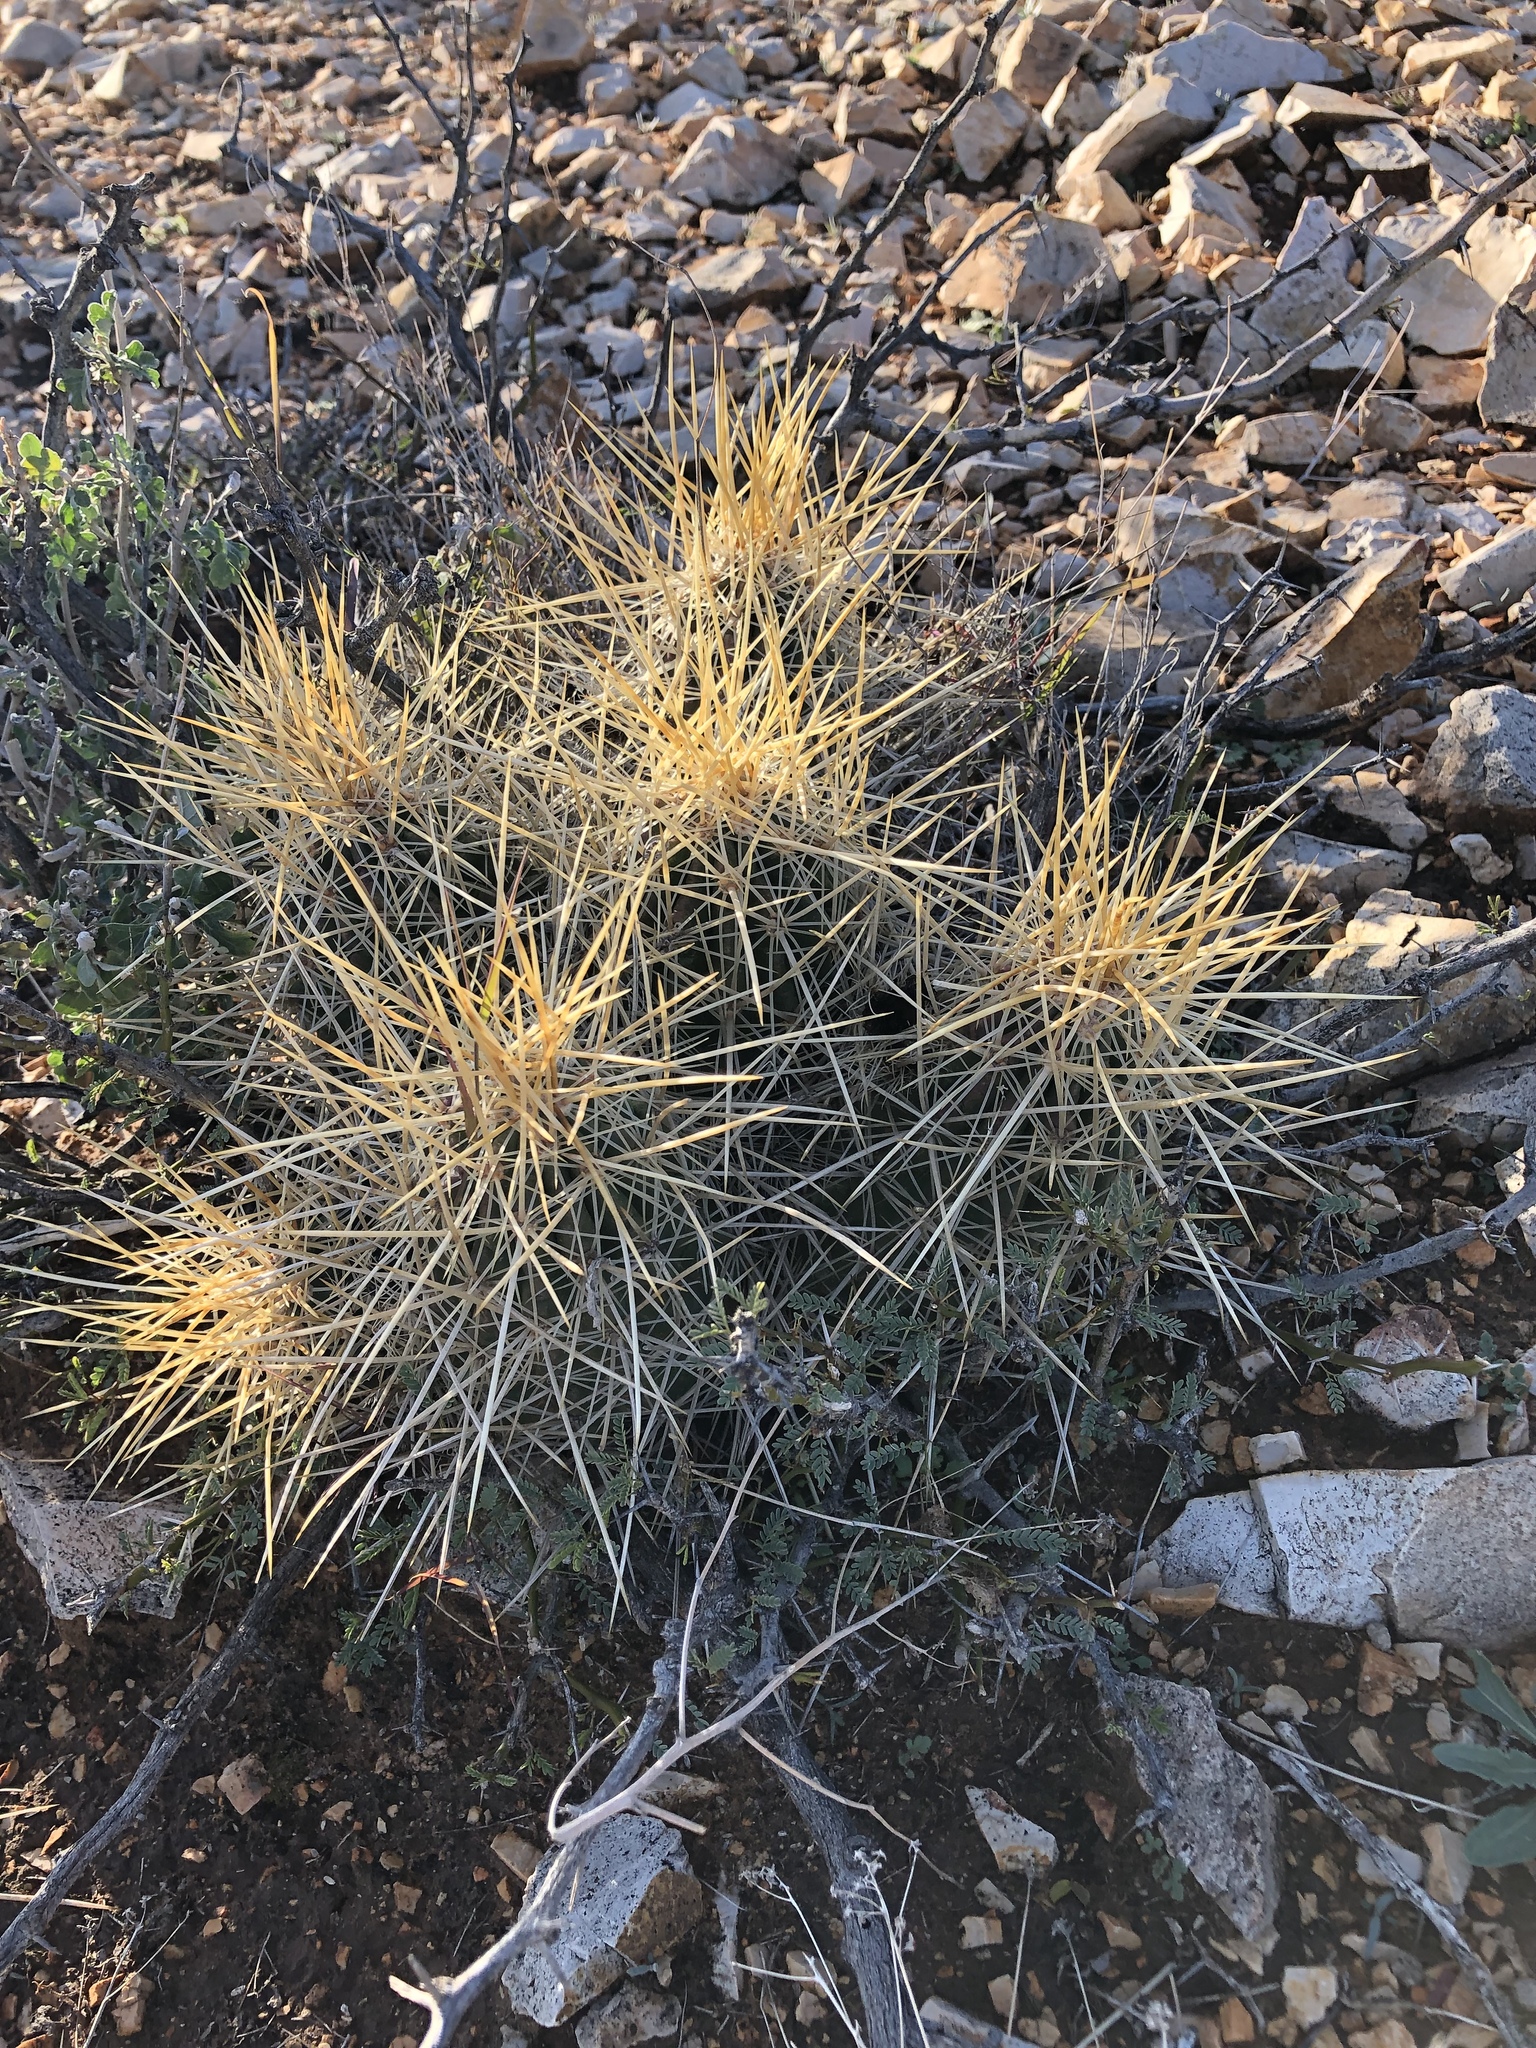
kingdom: Plantae
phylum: Tracheophyta
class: Magnoliopsida
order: Caryophyllales
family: Cactaceae
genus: Echinocereus
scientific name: Echinocereus stramineus
